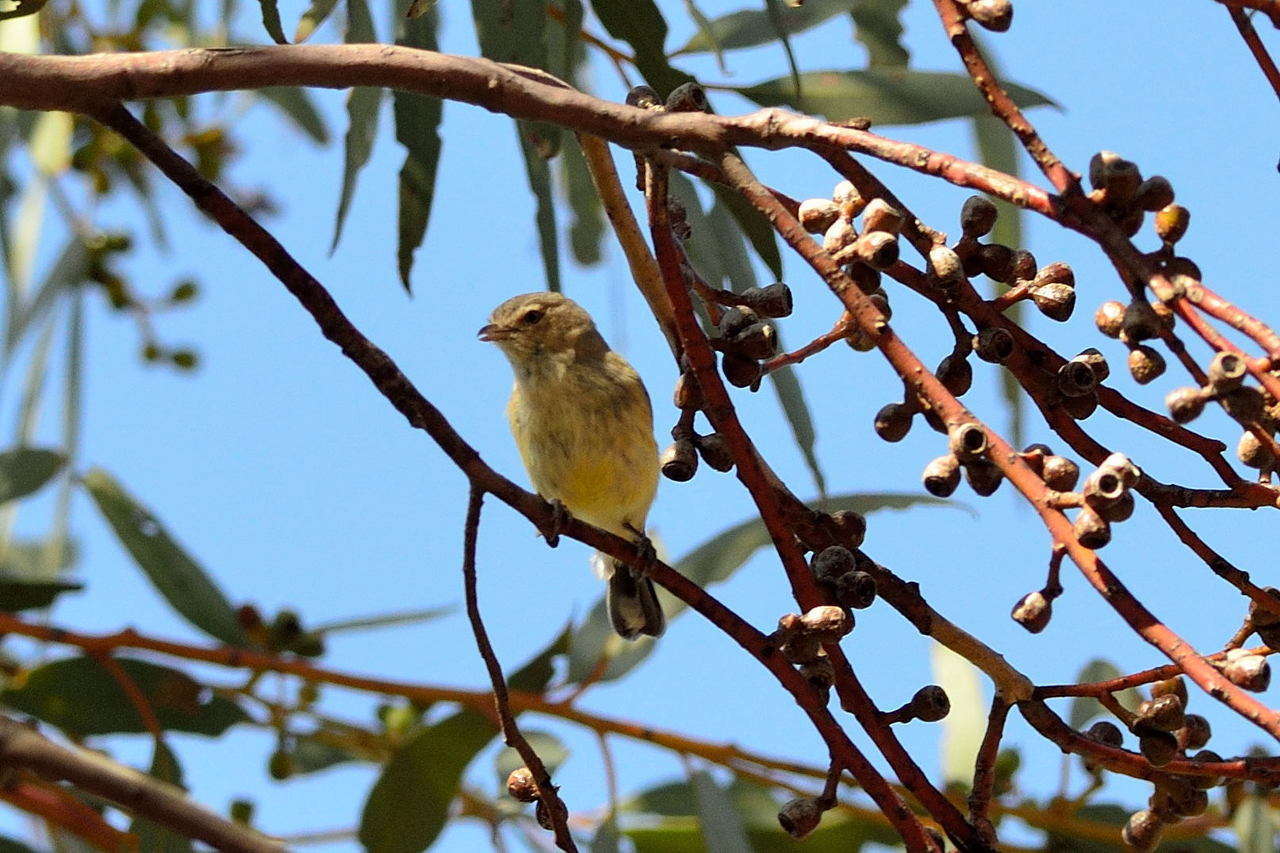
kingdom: Animalia
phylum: Chordata
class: Aves
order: Passeriformes
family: Acanthizidae
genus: Smicrornis
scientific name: Smicrornis brevirostris
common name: Weebill
